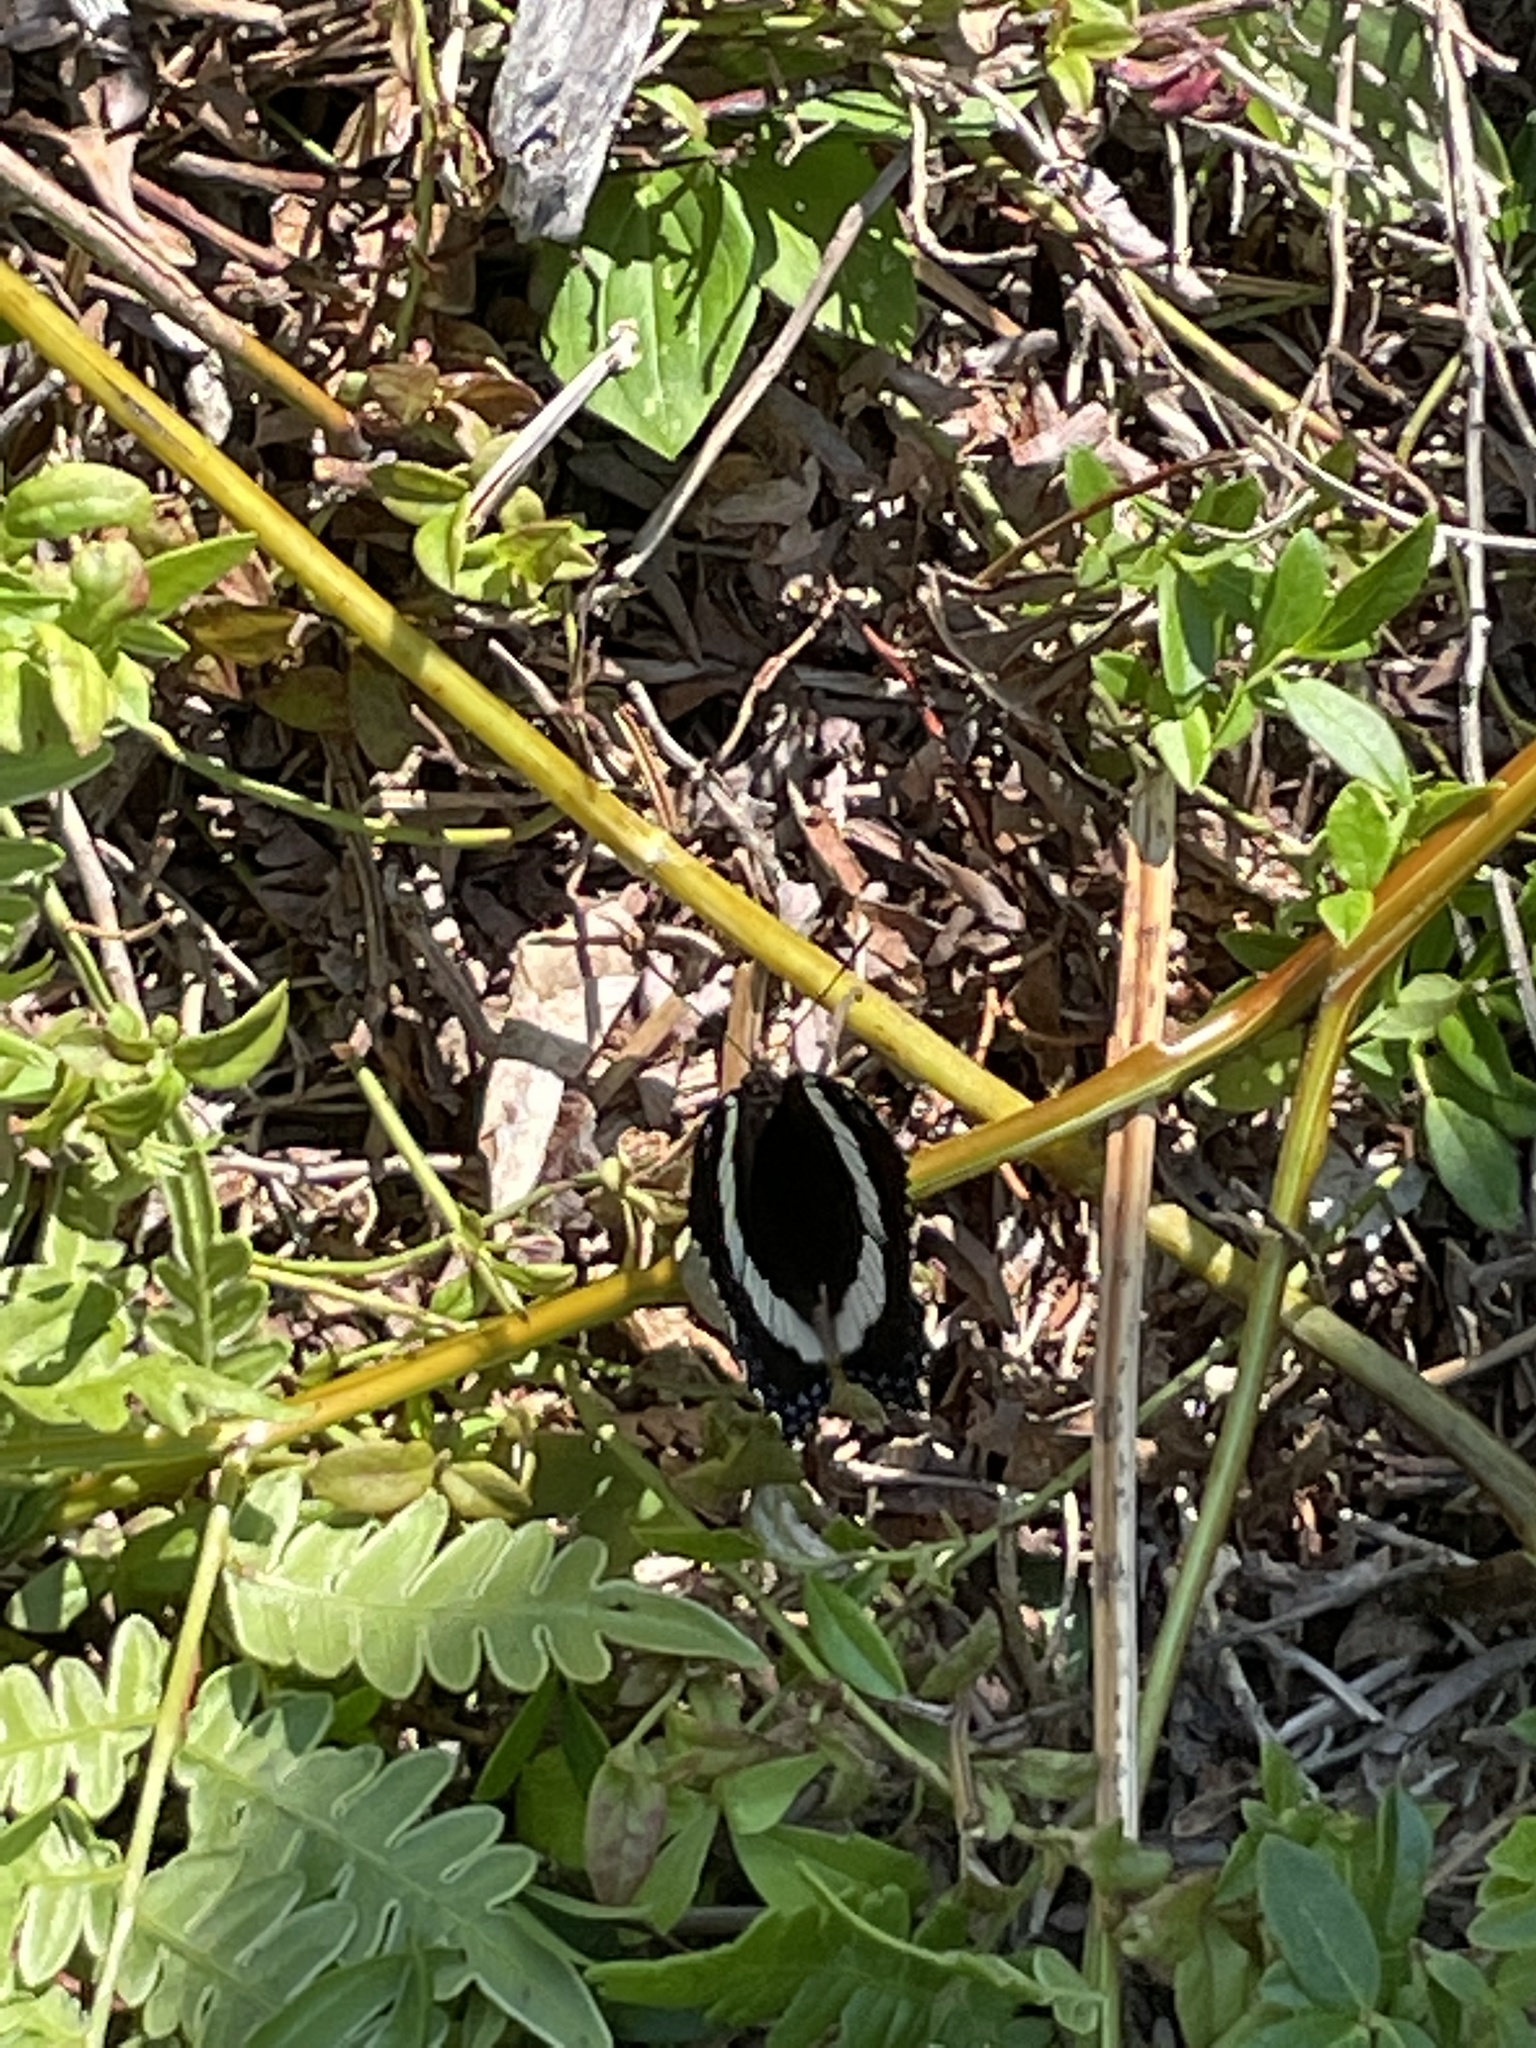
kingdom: Animalia
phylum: Arthropoda
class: Insecta
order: Lepidoptera
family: Nymphalidae
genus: Limenitis
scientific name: Limenitis arthemis
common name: Red-spotted admiral
